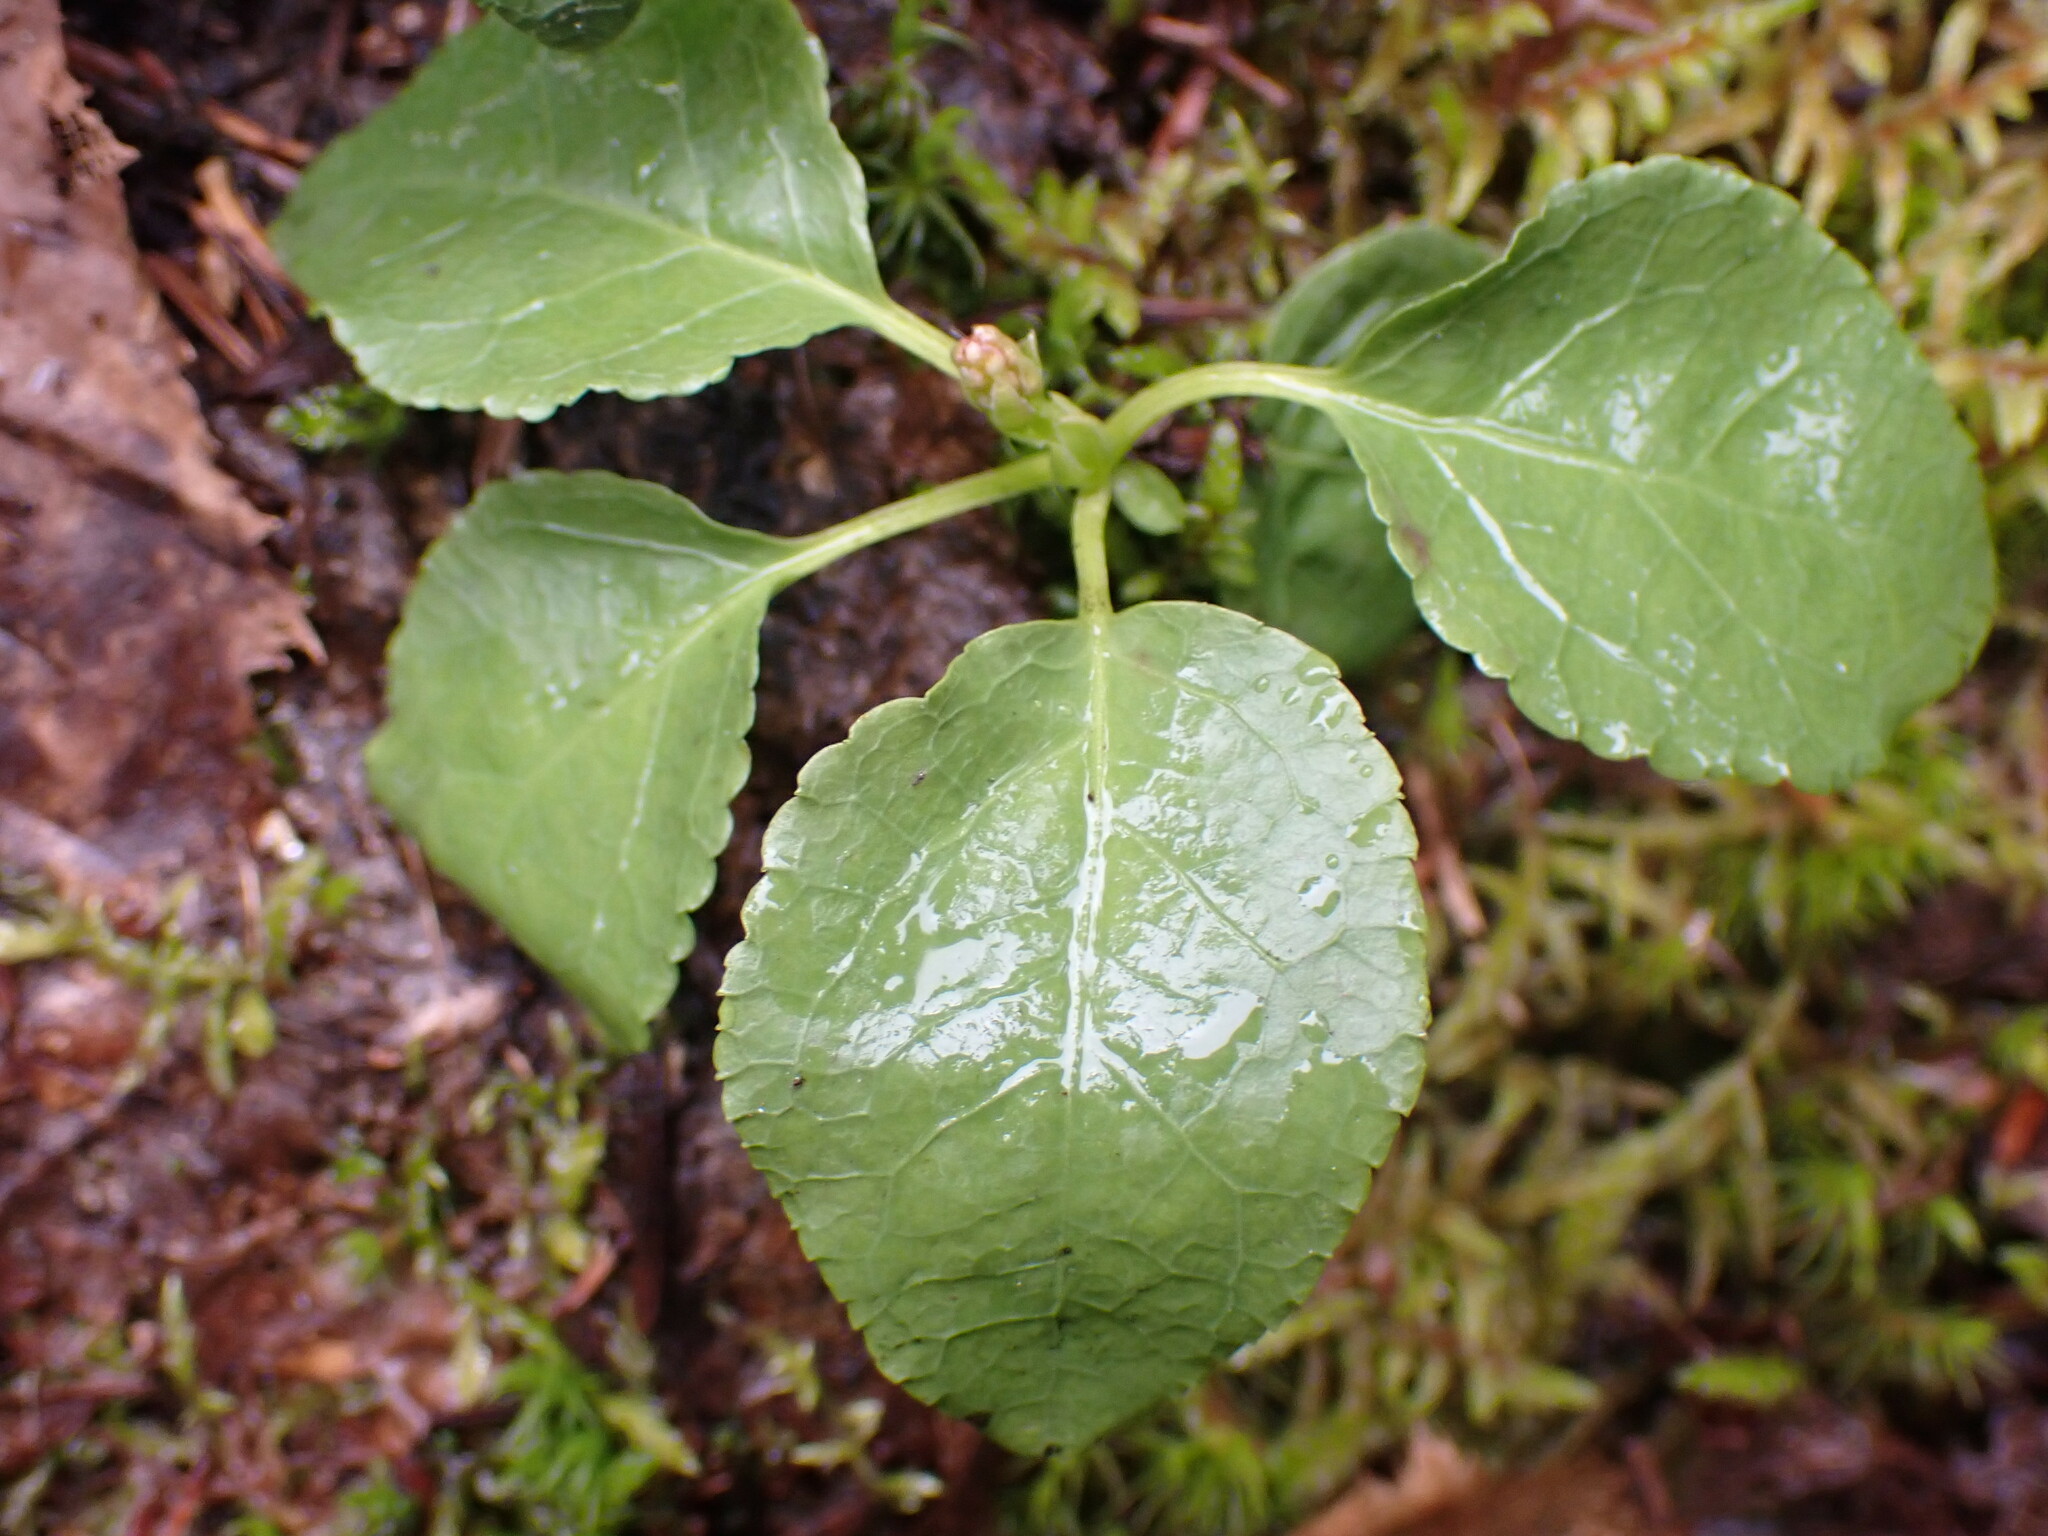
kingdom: Plantae
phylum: Tracheophyta
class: Magnoliopsida
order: Ericales
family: Ericaceae
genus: Orthilia
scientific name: Orthilia secunda
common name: One-sided orthilia
